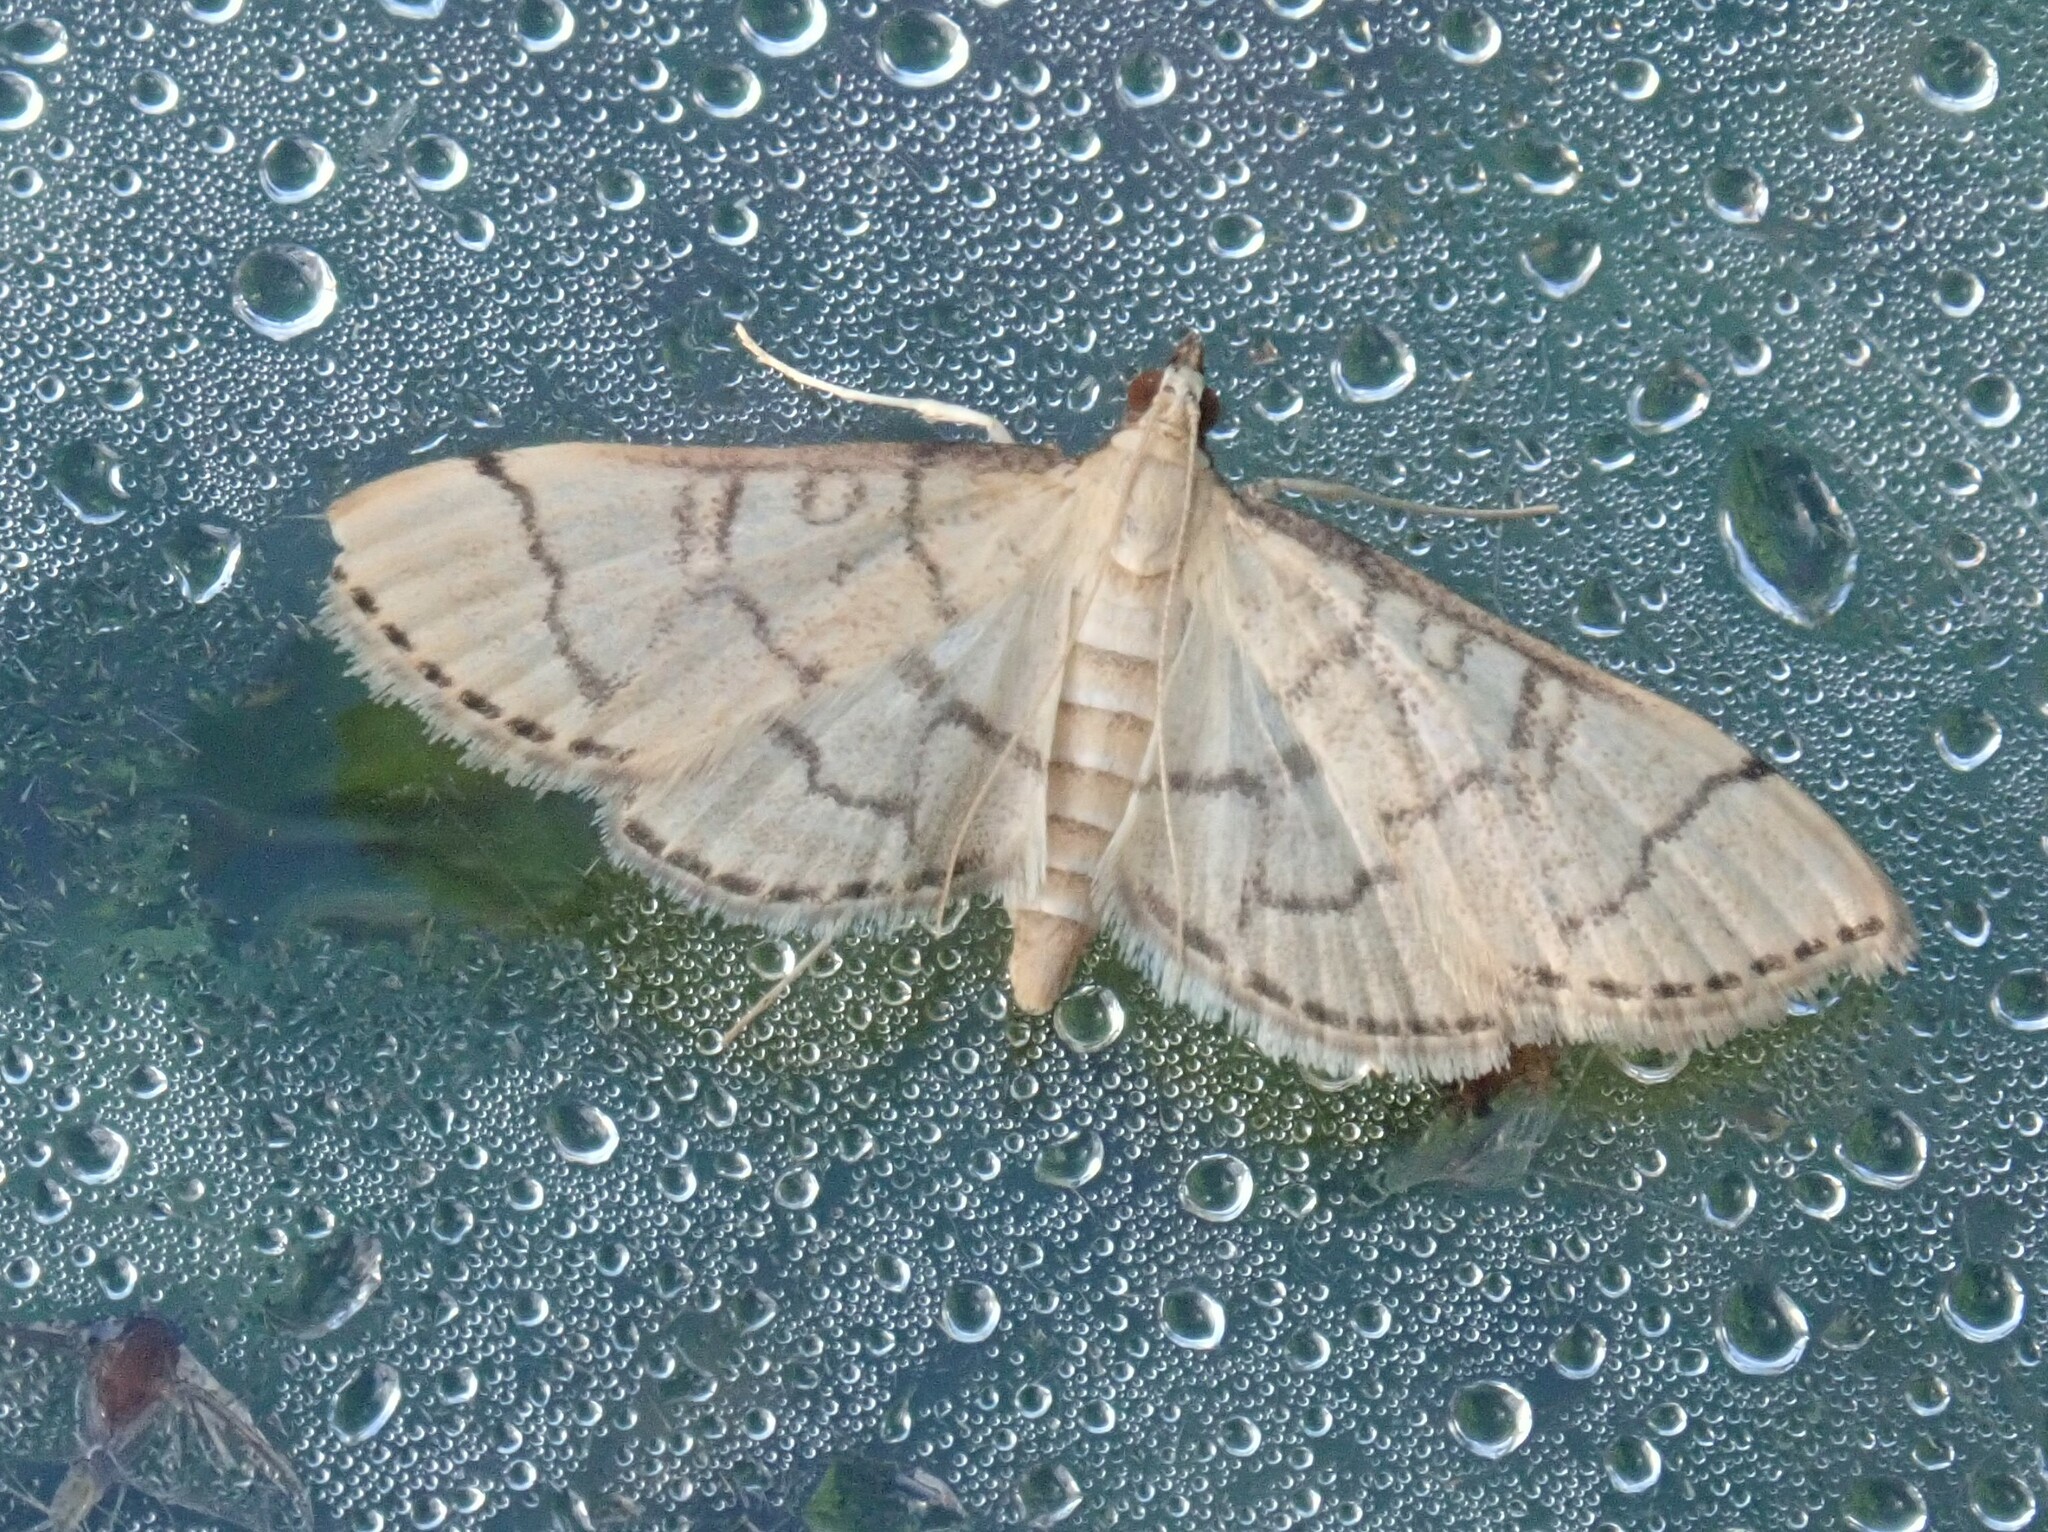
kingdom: Animalia
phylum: Arthropoda
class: Insecta
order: Lepidoptera
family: Crambidae
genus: Lamprosema
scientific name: Lamprosema Blepharomastix ranalis
